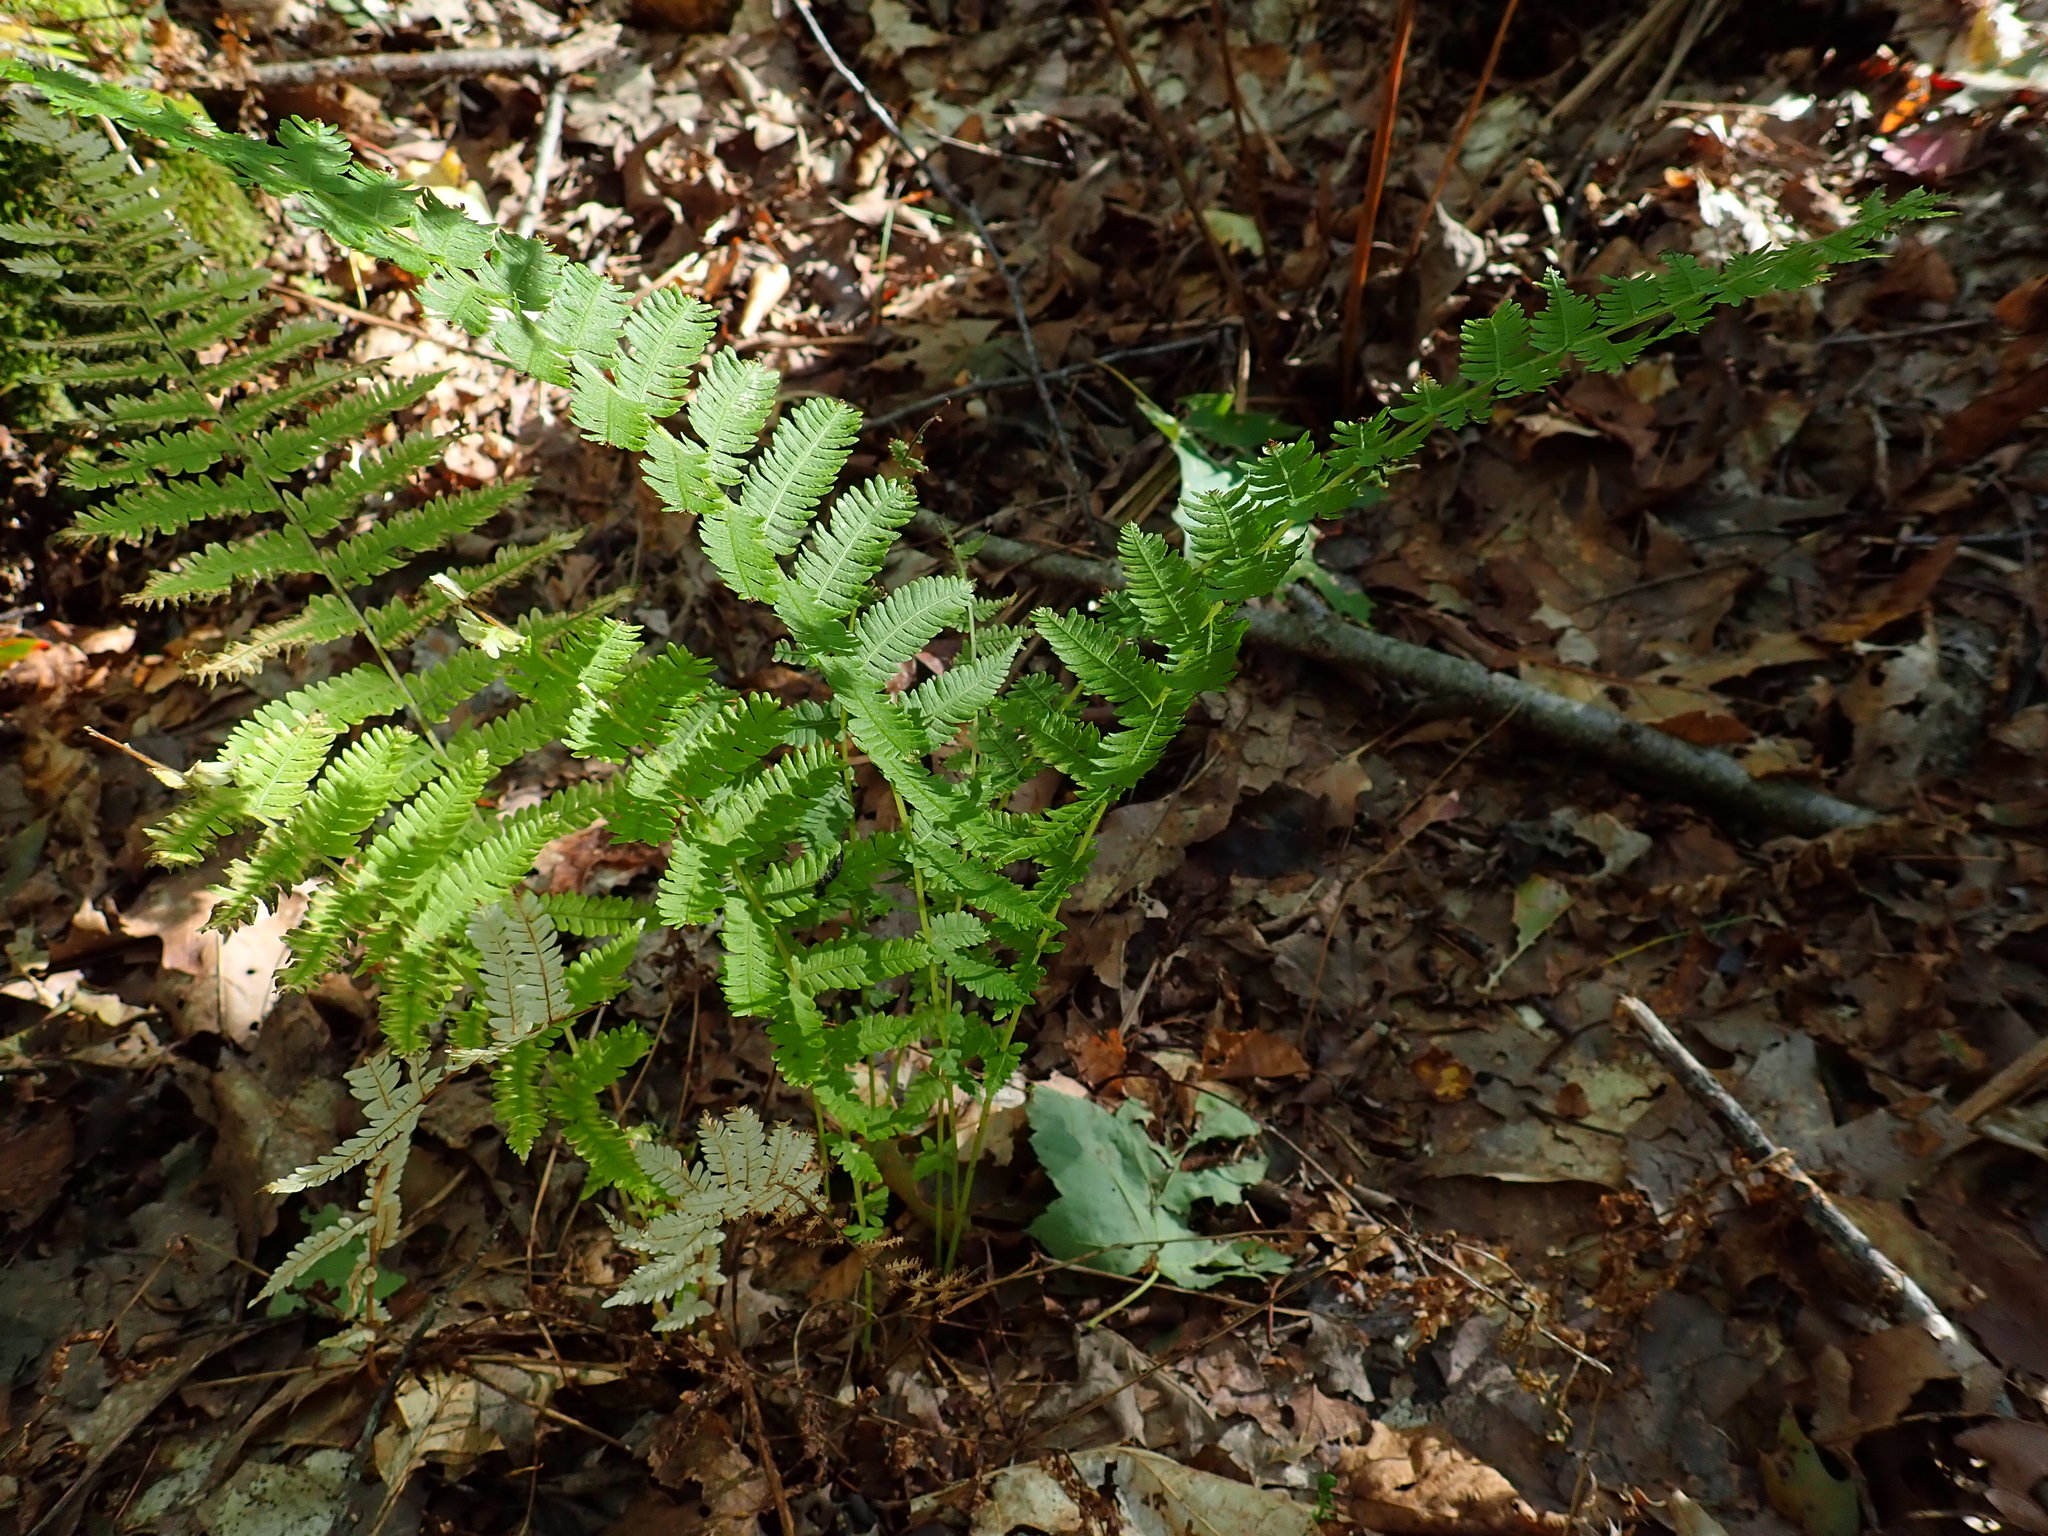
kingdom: Plantae
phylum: Tracheophyta
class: Polypodiopsida
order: Polypodiales
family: Thelypteridaceae
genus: Amauropelta
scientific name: Amauropelta noveboracensis
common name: New york fern
